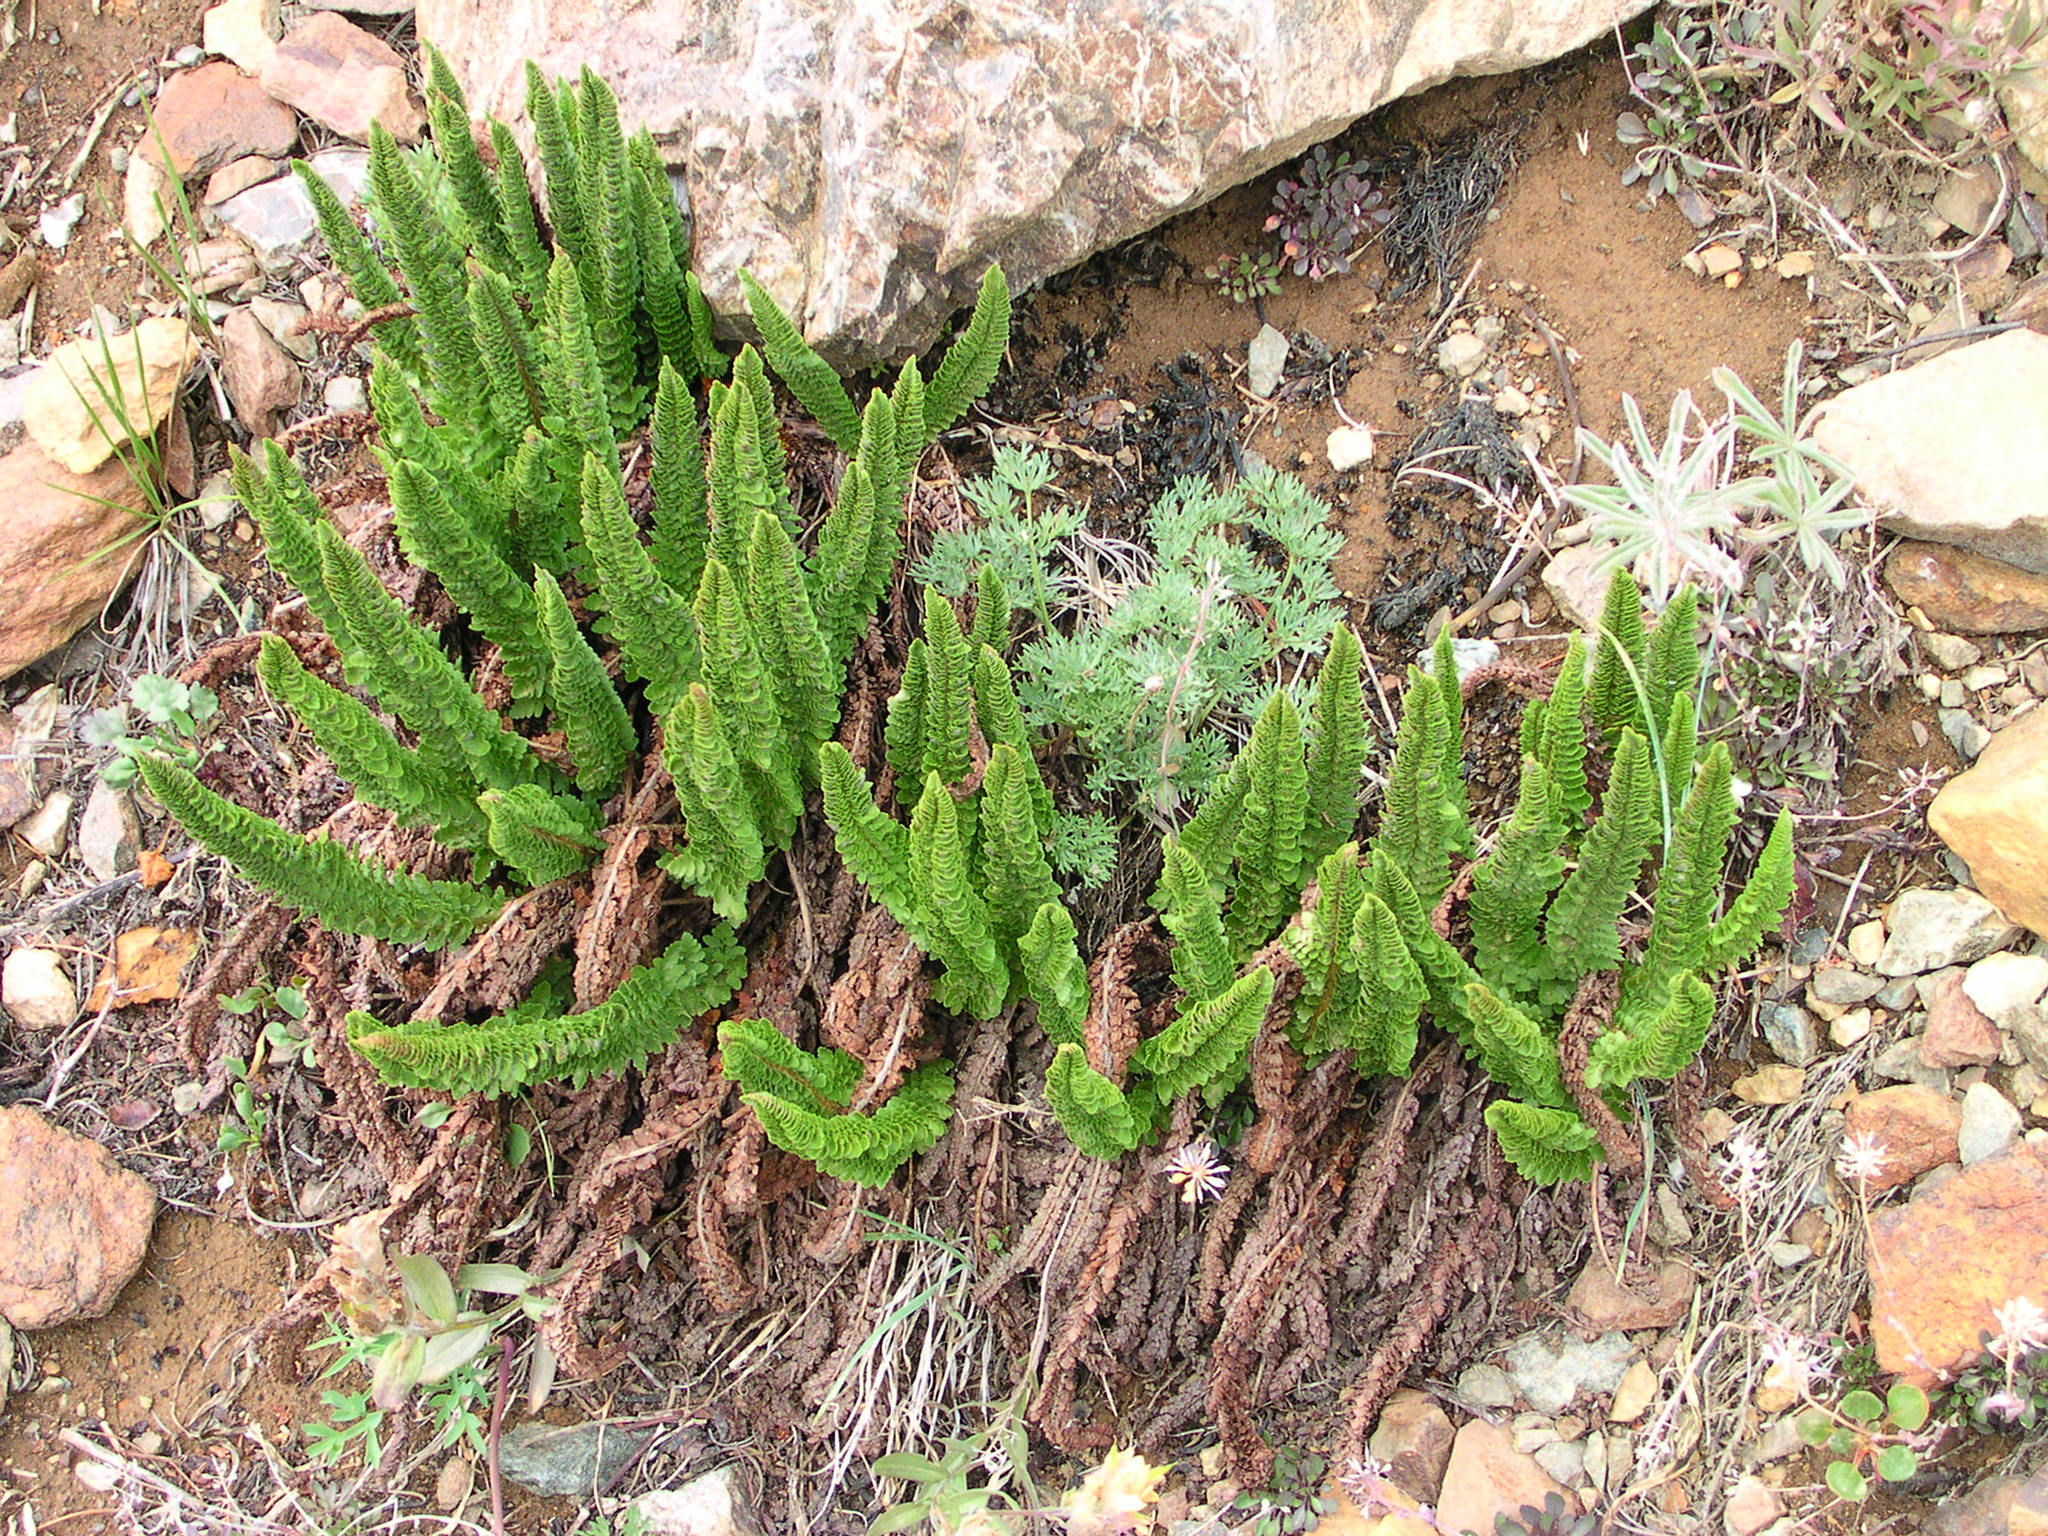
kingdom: Plantae
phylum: Tracheophyta
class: Polypodiopsida
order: Polypodiales
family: Dryopteridaceae
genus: Polystichum
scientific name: Polystichum lemmonii
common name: Lemmon's holly fern
